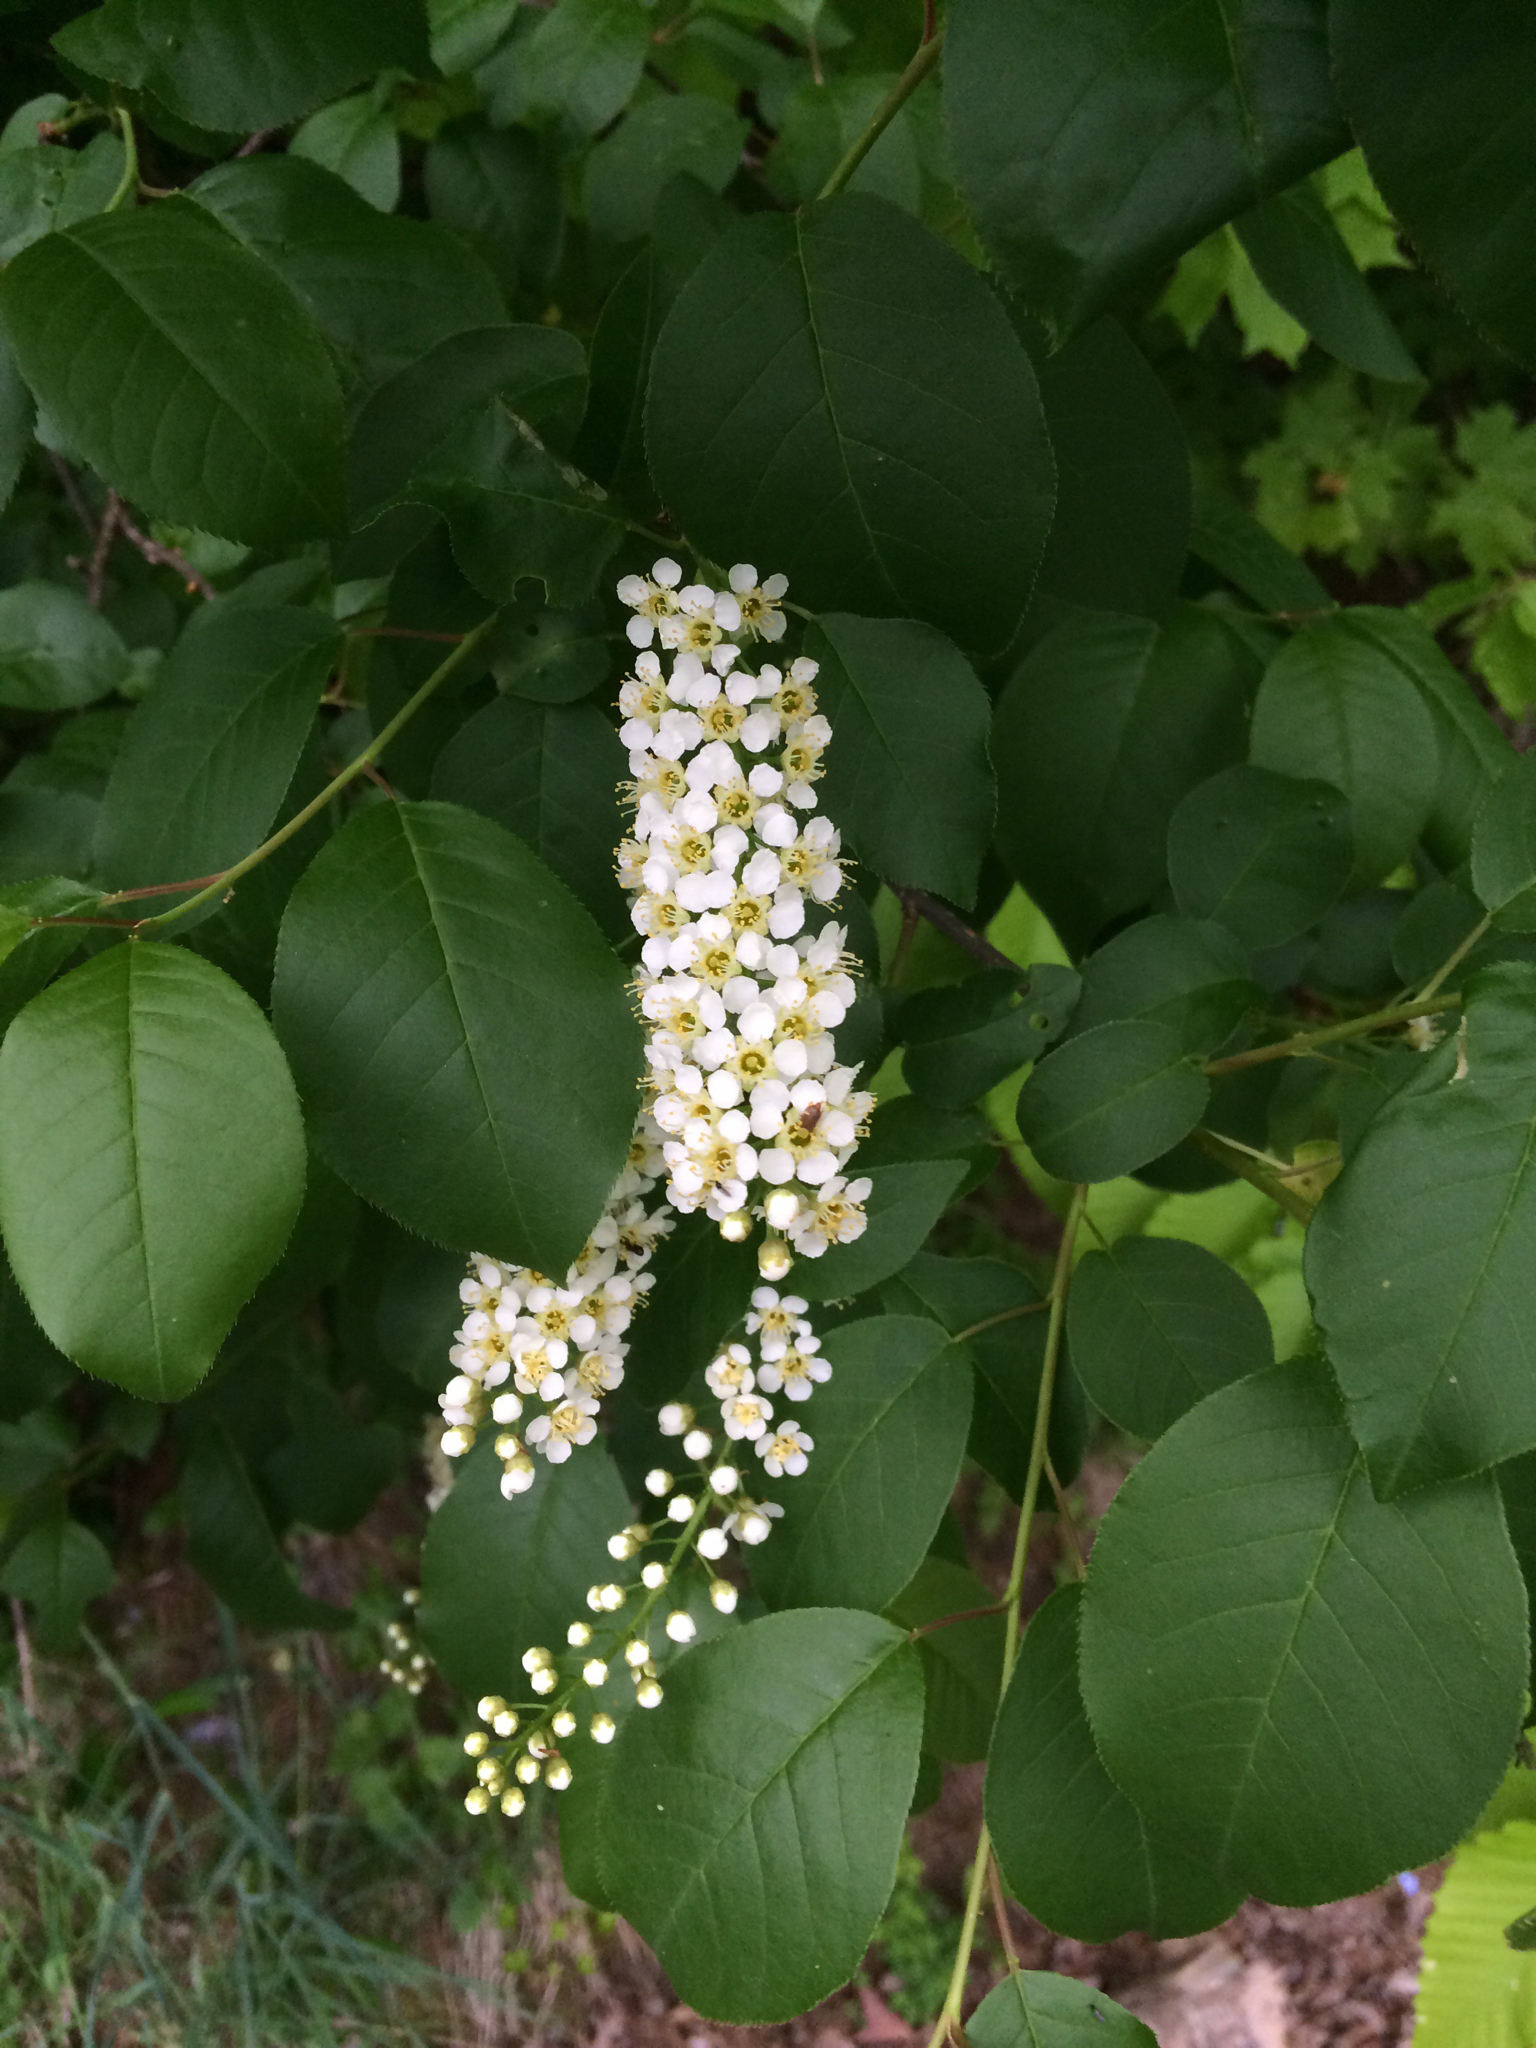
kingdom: Plantae
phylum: Tracheophyta
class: Magnoliopsida
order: Rosales
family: Rosaceae
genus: Prunus
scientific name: Prunus virginiana
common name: Chokecherry
